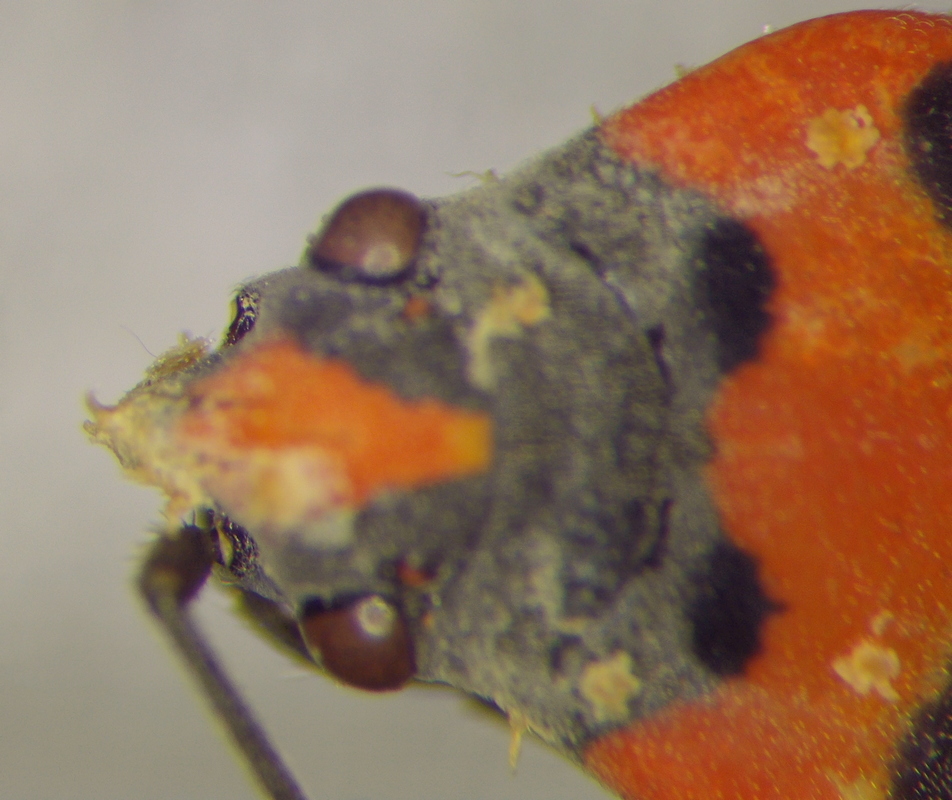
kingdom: Animalia
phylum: Arthropoda
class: Insecta
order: Hemiptera
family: Lygaeidae
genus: Lygaeus
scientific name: Lygaeus equestris
